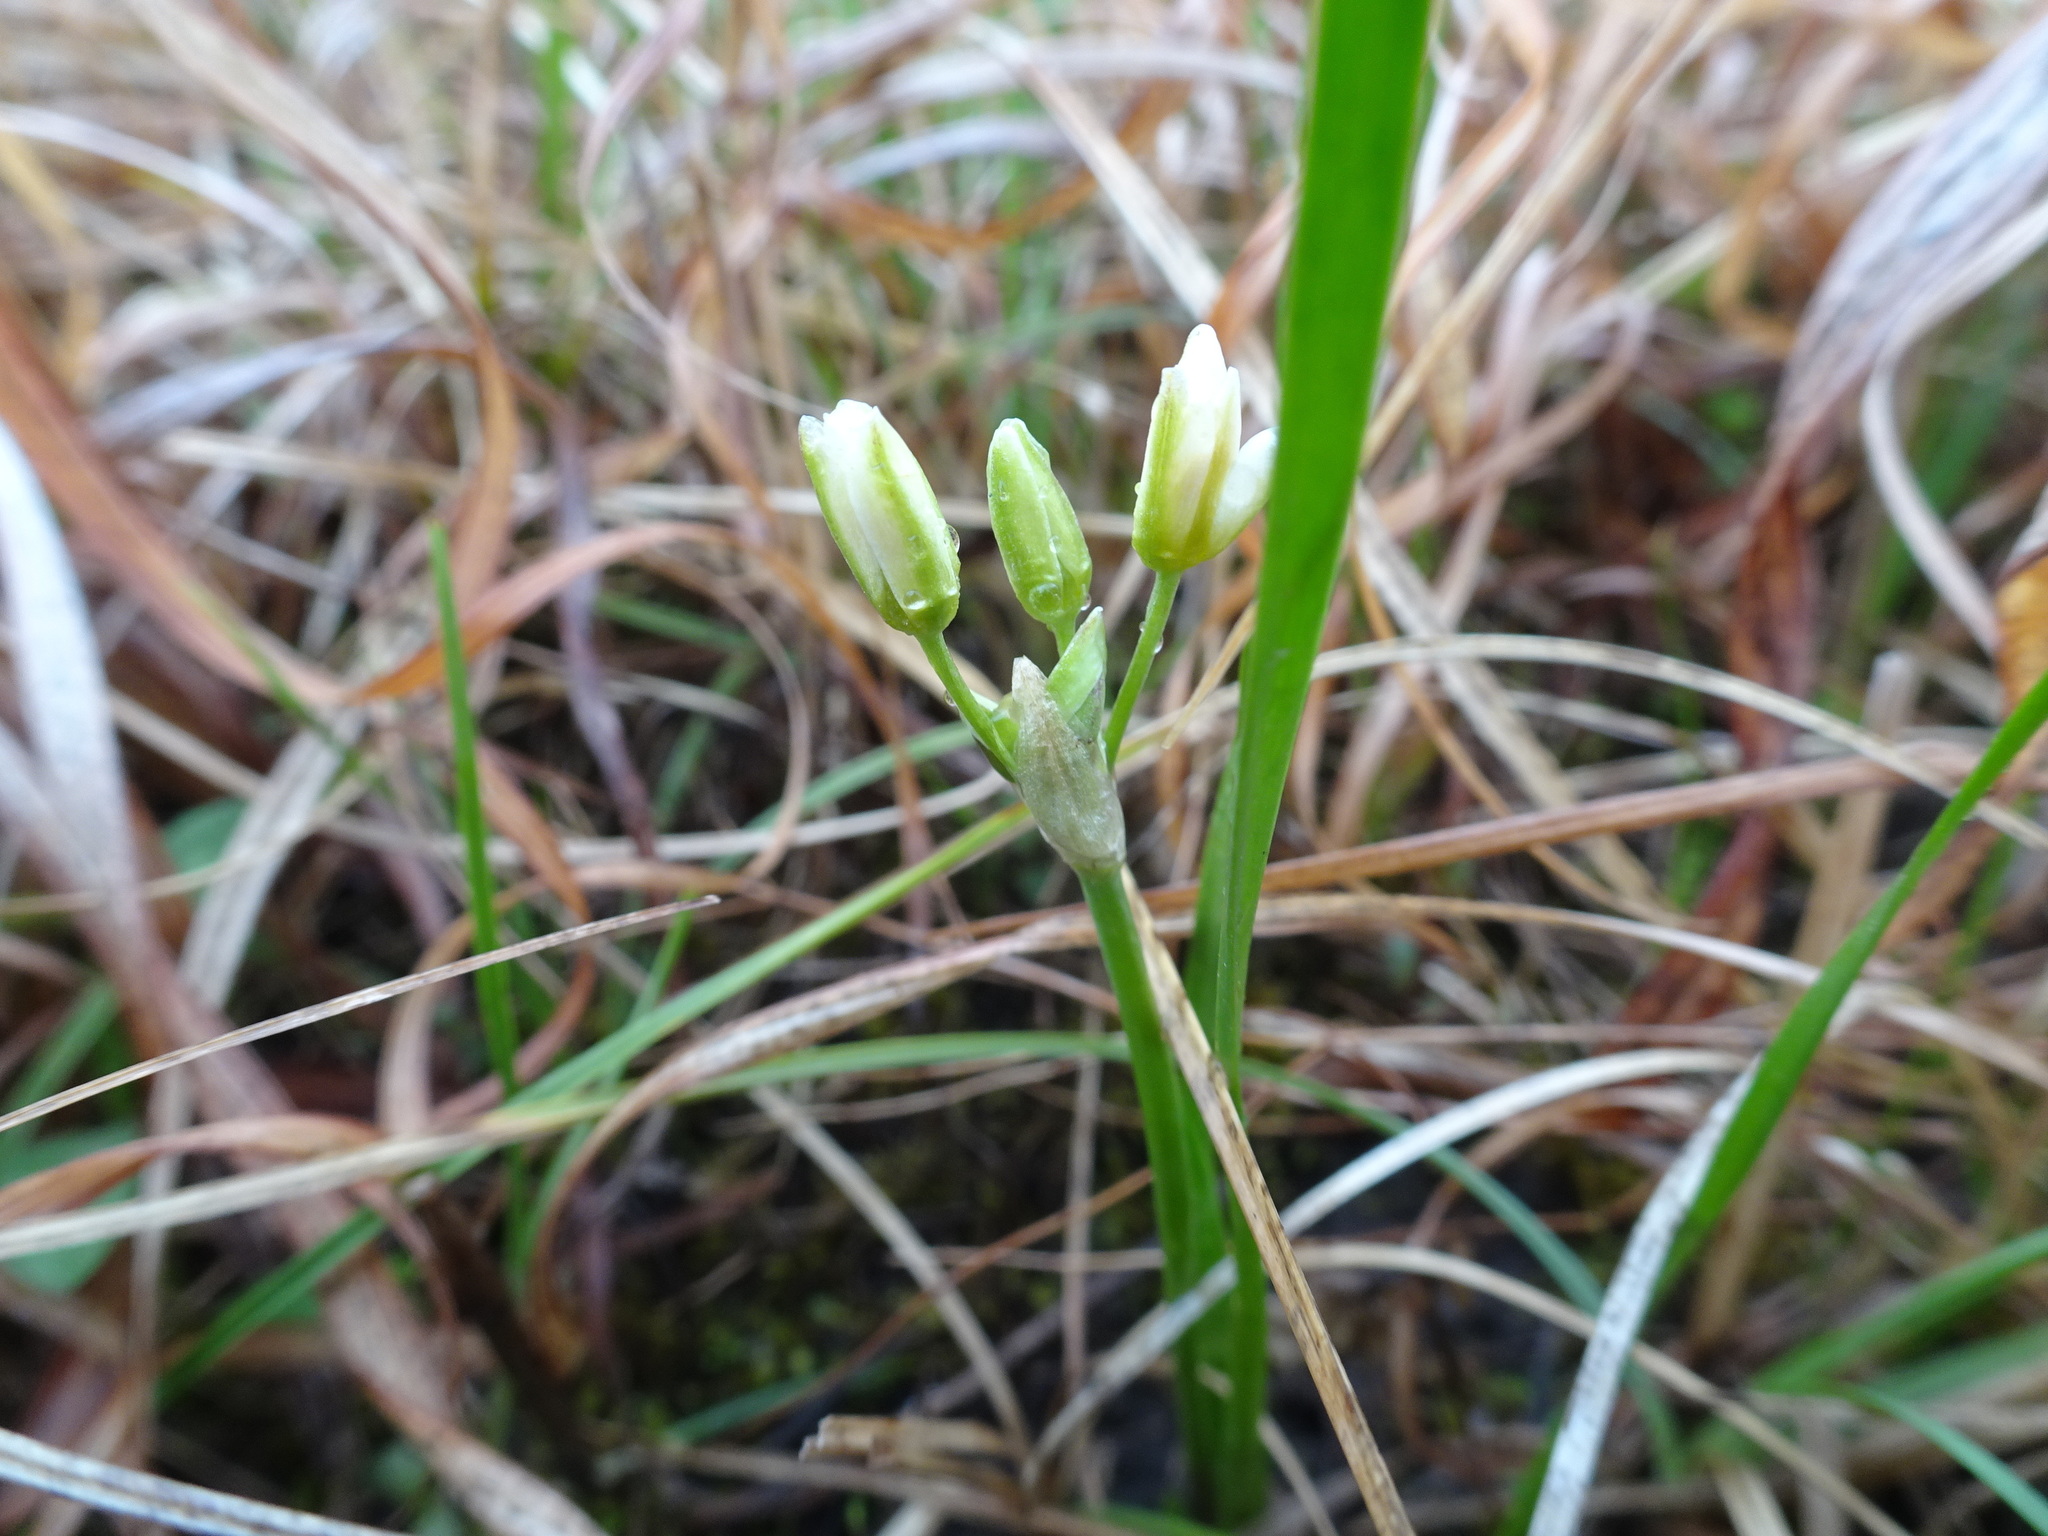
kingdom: Plantae
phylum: Tracheophyta
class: Liliopsida
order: Asparagales
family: Amaryllidaceae
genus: Nothoscordum
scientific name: Nothoscordum bivalve
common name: Crow-poison
